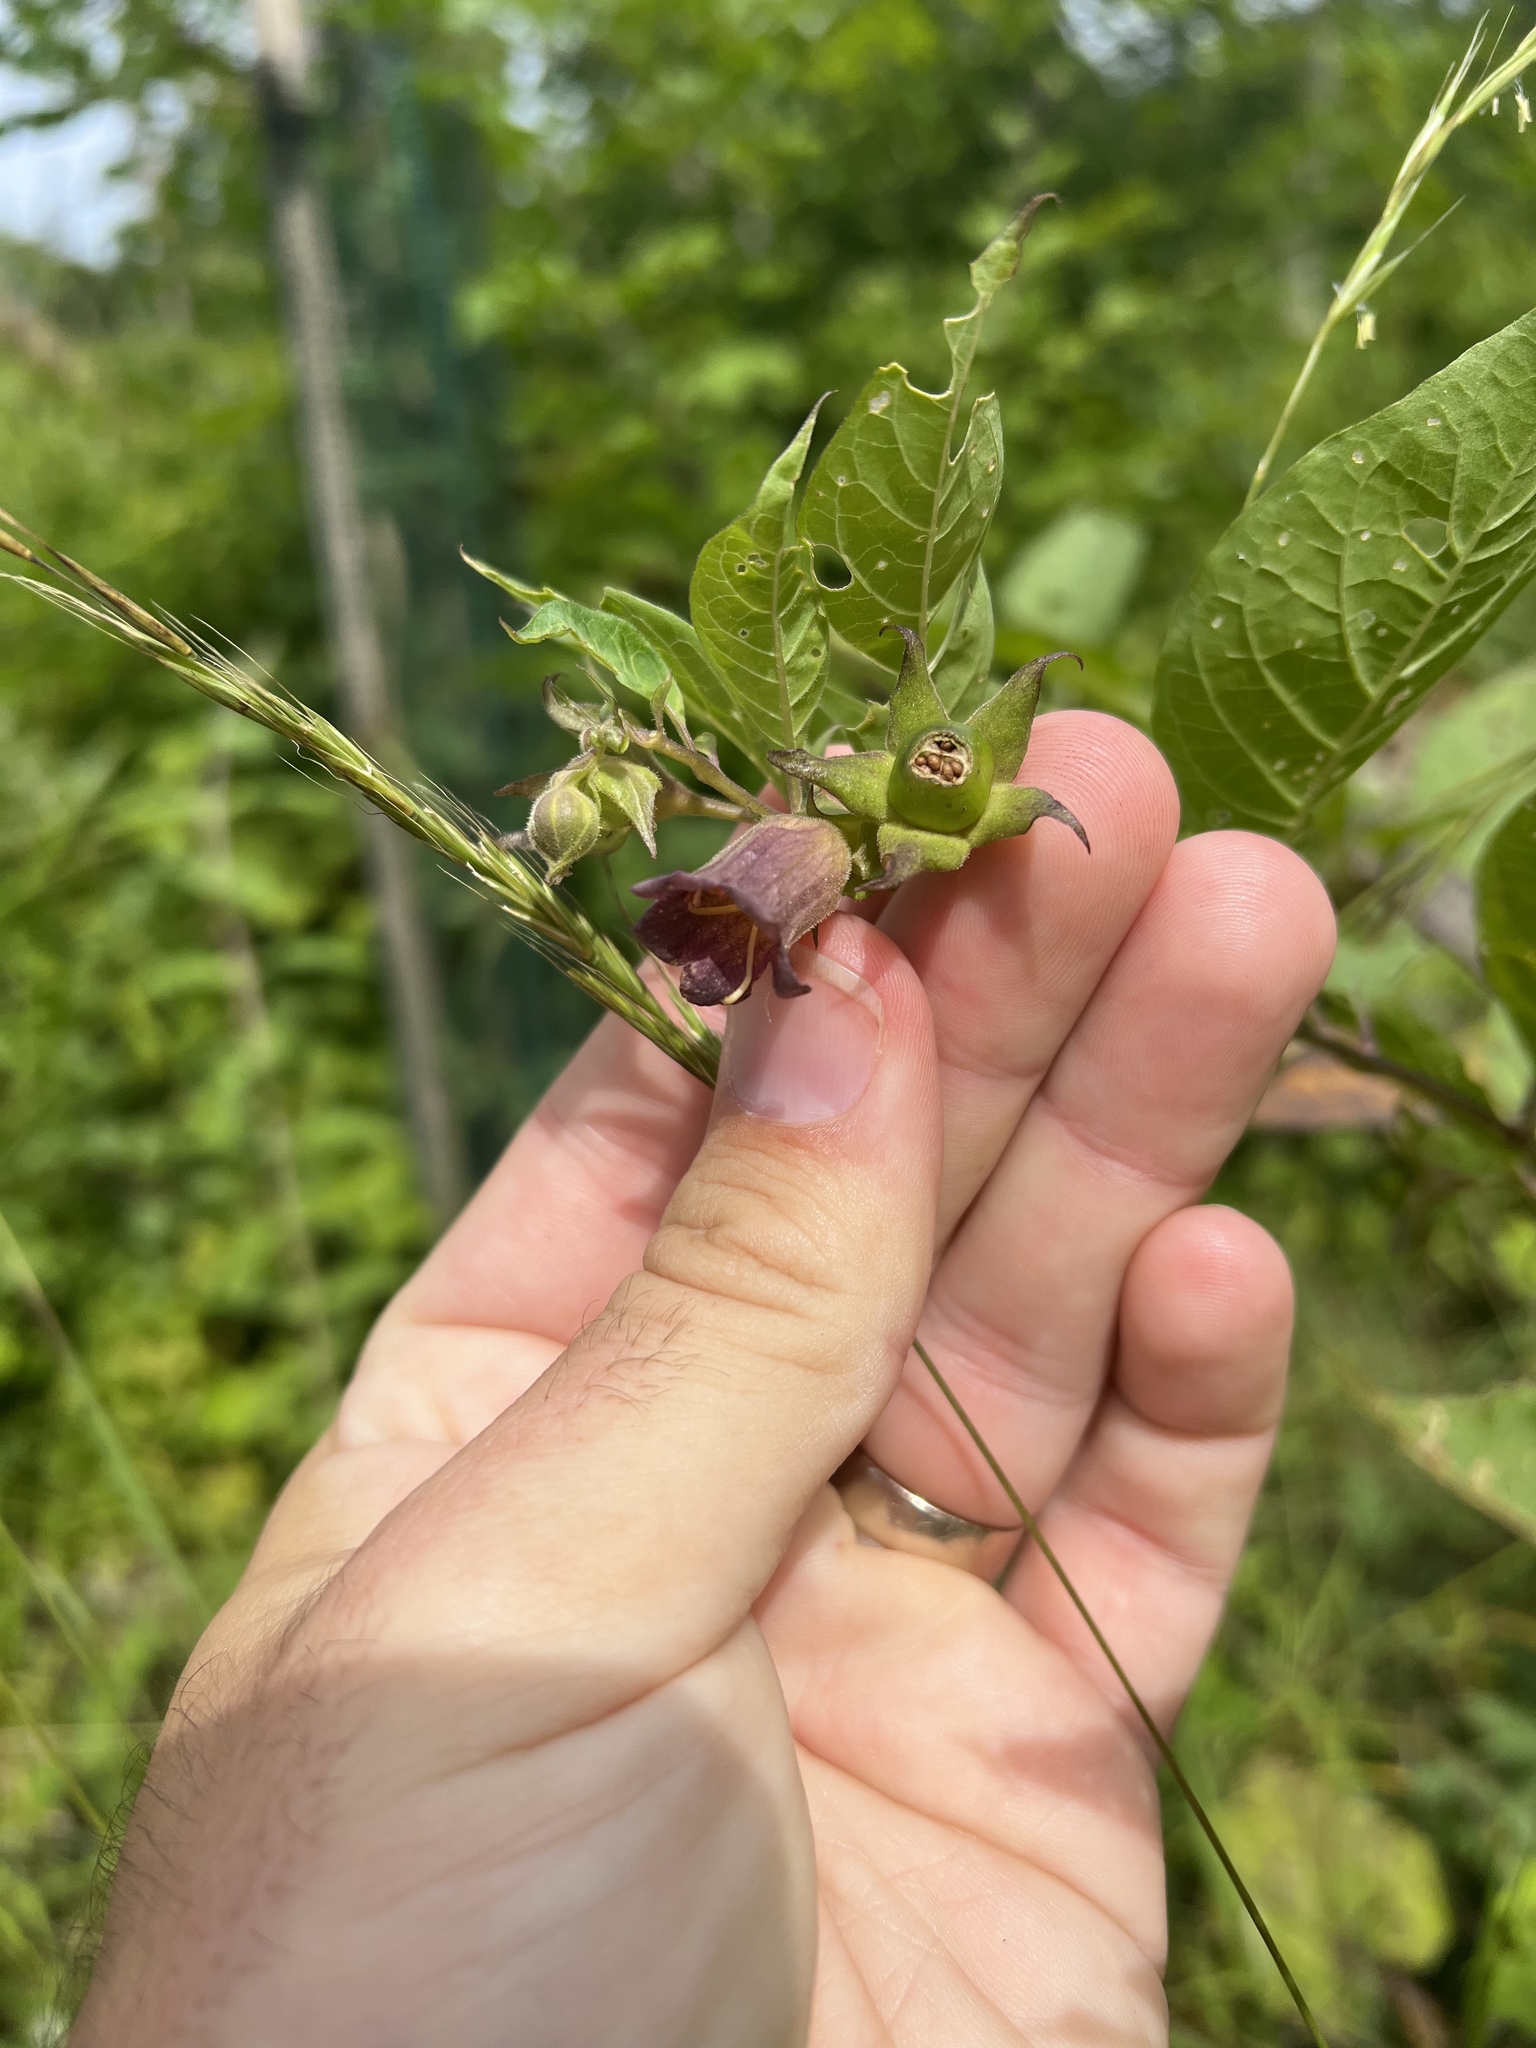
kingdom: Plantae
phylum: Tracheophyta
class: Magnoliopsida
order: Solanales
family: Solanaceae
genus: Atropa
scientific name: Atropa belladonna
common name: Deadly nightshade
